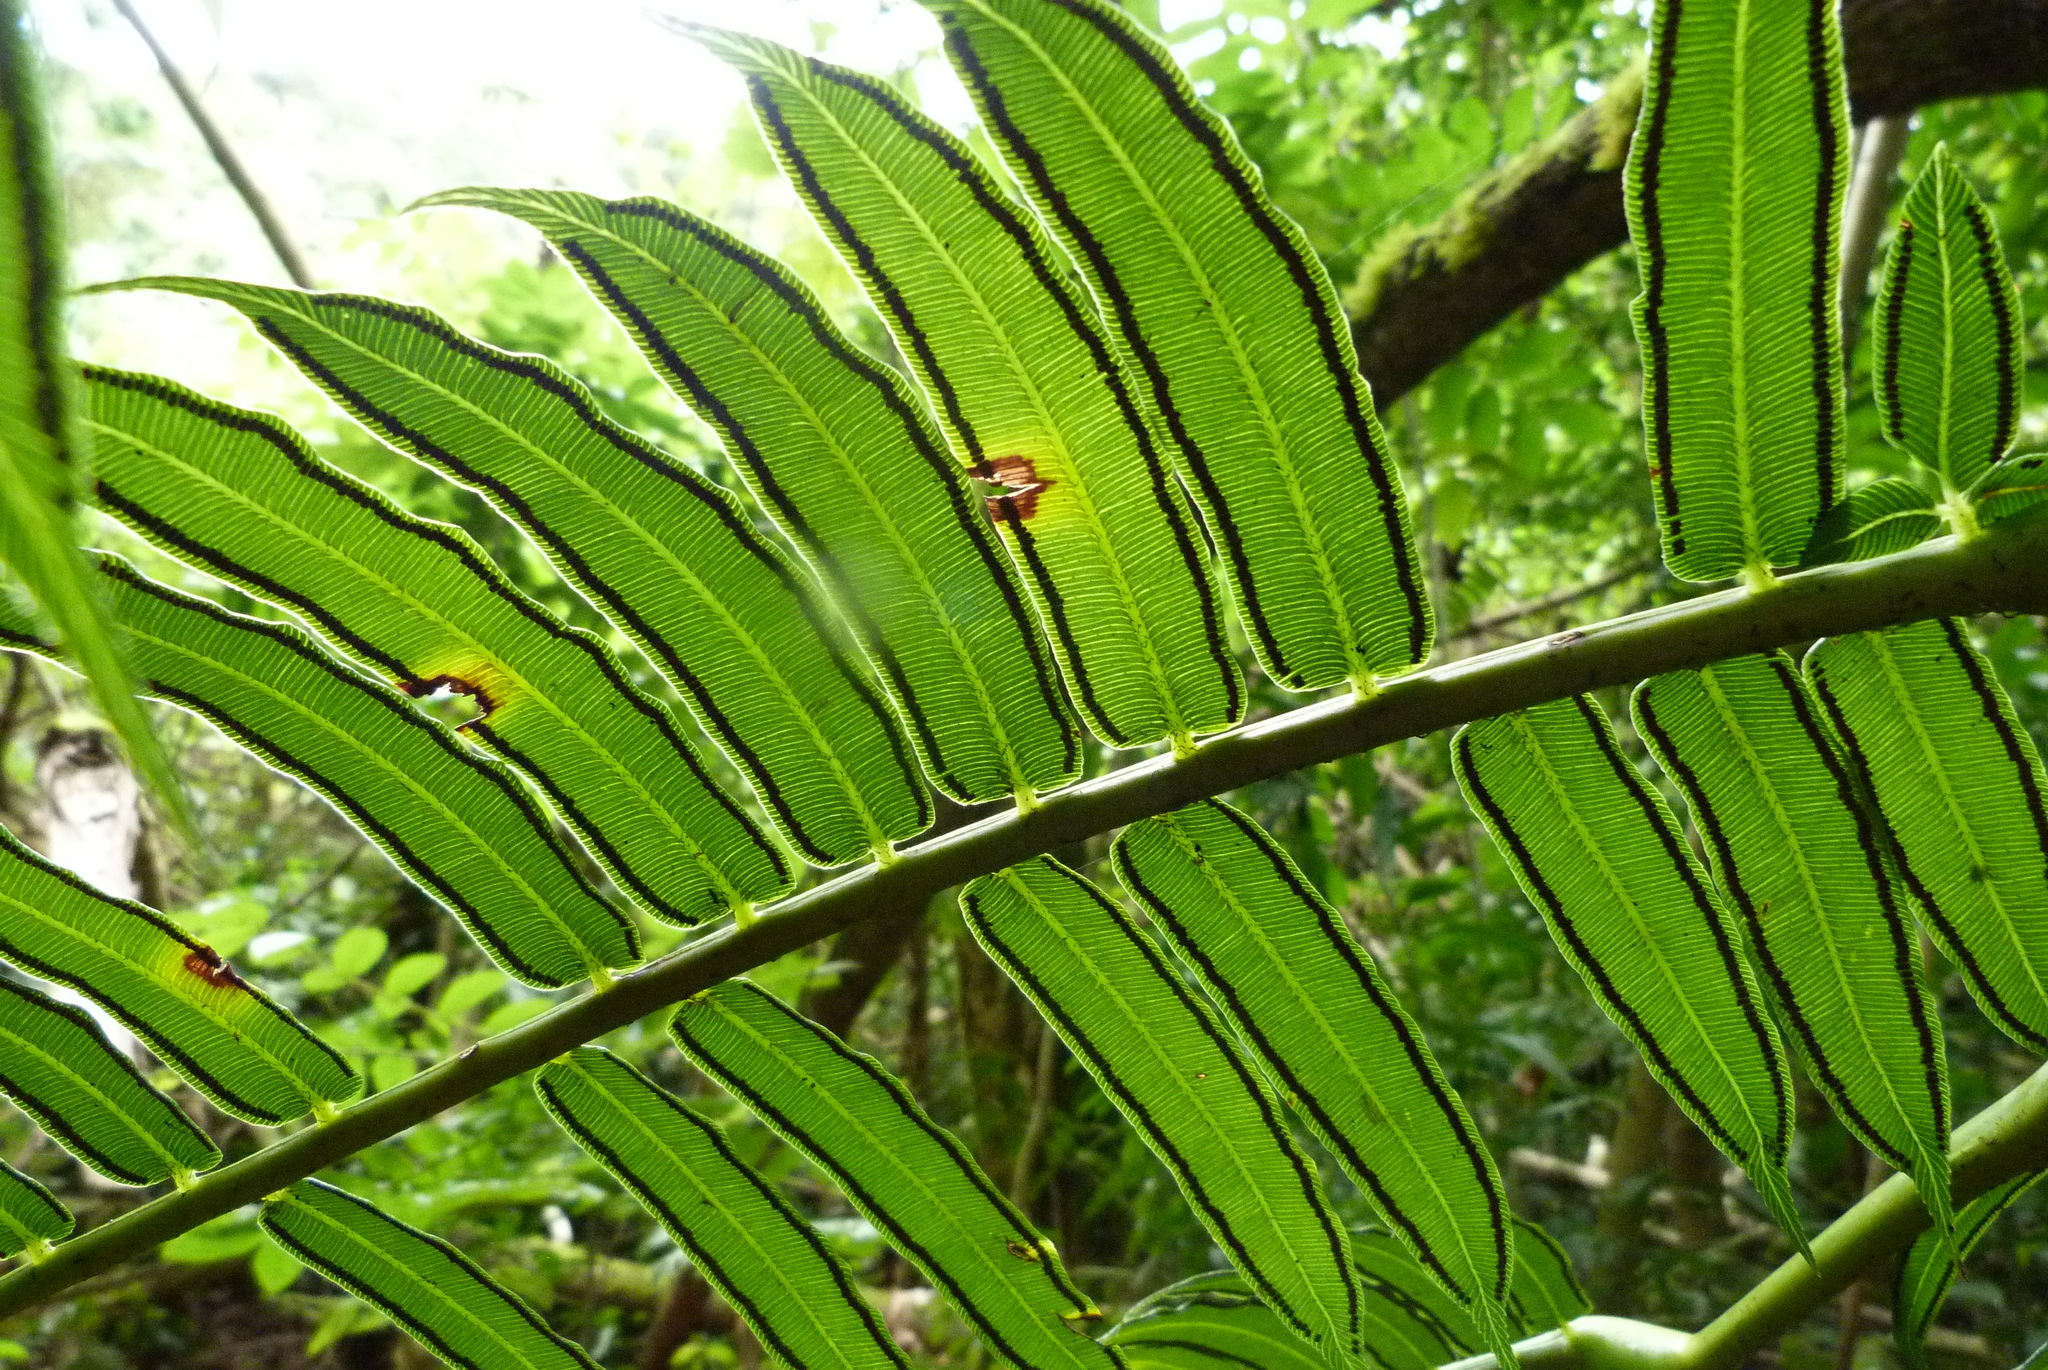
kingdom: Plantae
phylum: Tracheophyta
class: Polypodiopsida
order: Marattiales
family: Marattiaceae
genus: Angiopteris
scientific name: Angiopteris evecta
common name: Mule's-foot fern
